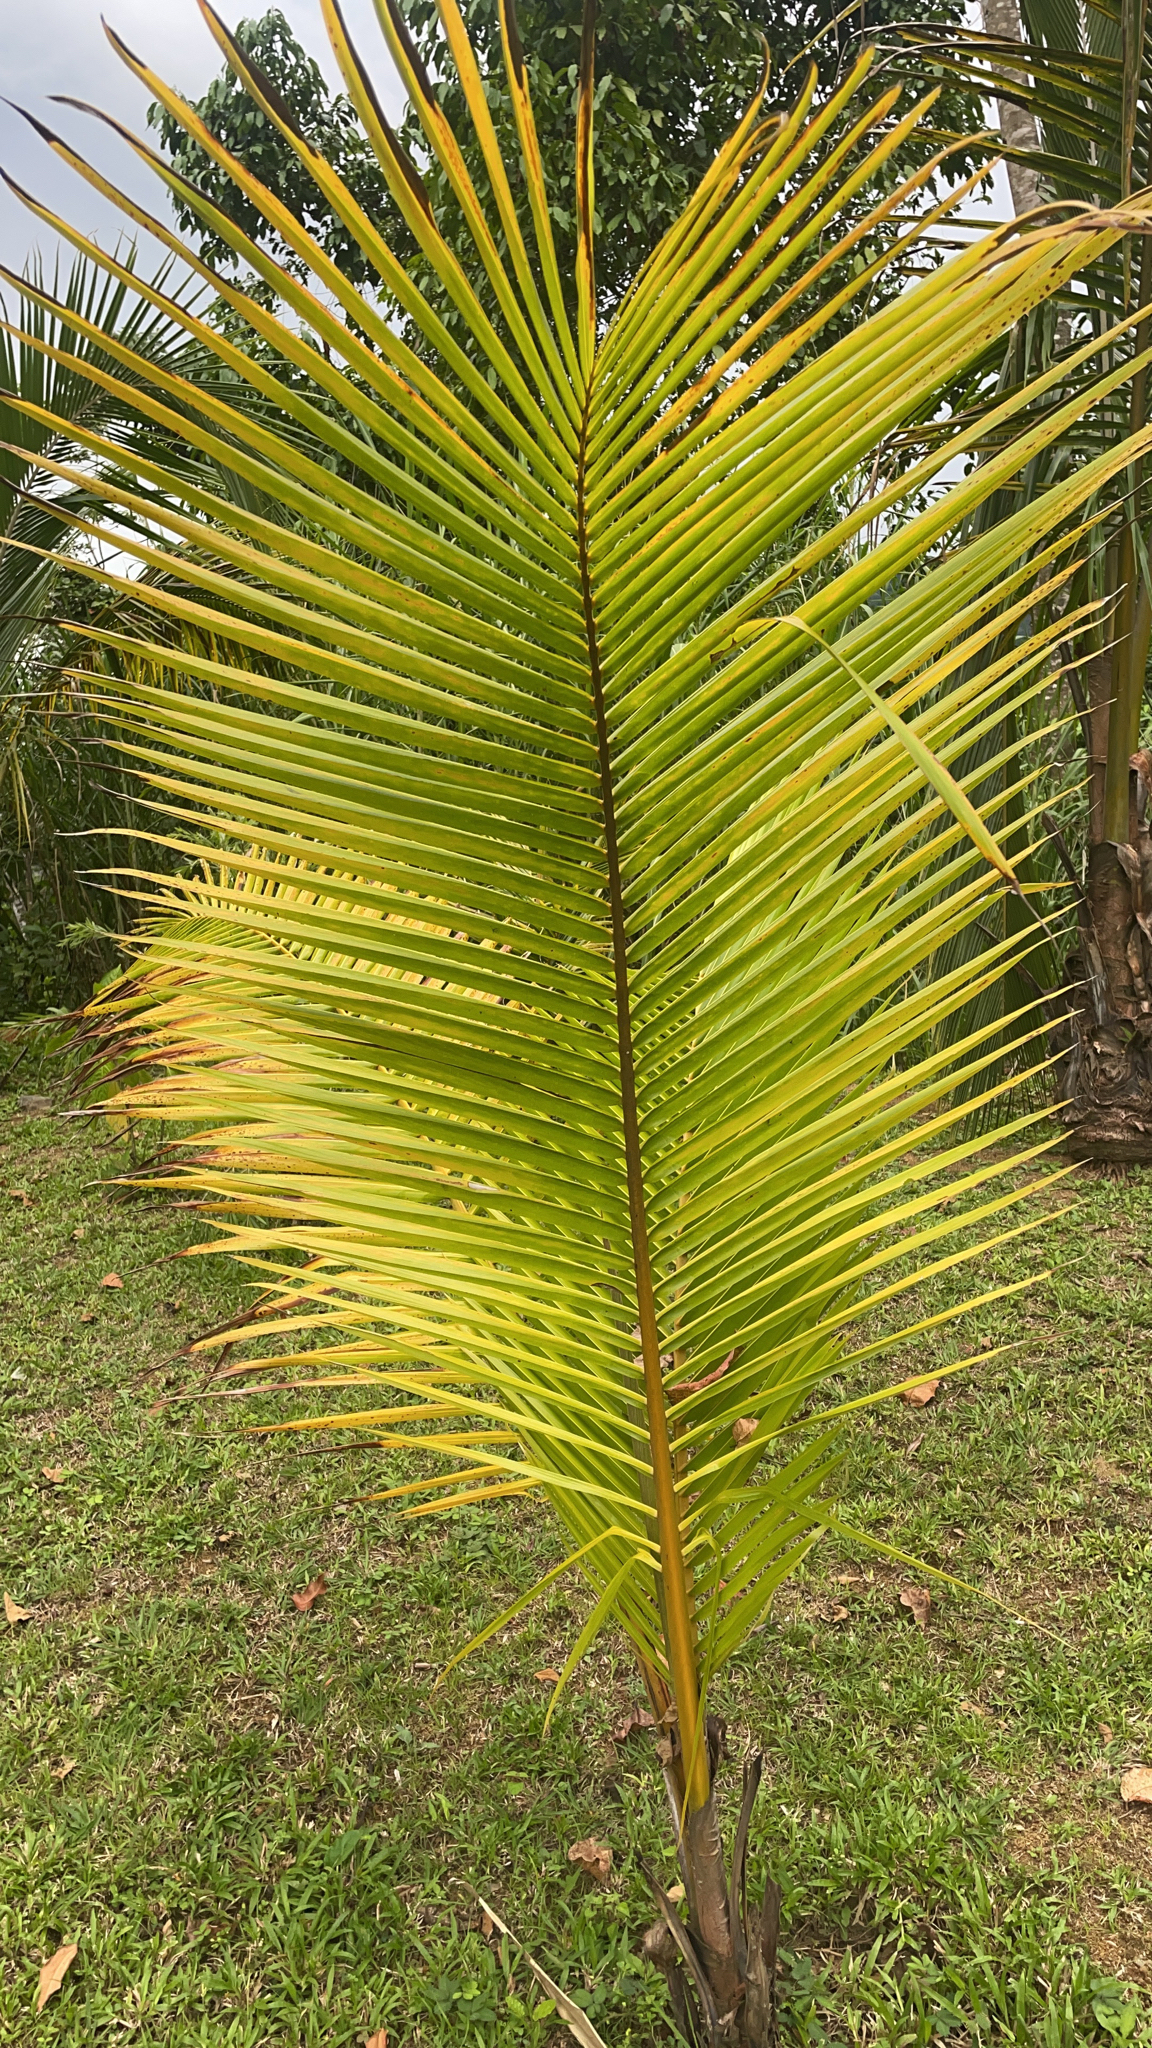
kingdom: Plantae
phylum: Tracheophyta
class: Liliopsida
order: Arecales
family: Arecaceae
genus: Cocos
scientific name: Cocos nucifera
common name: Coconut palm
